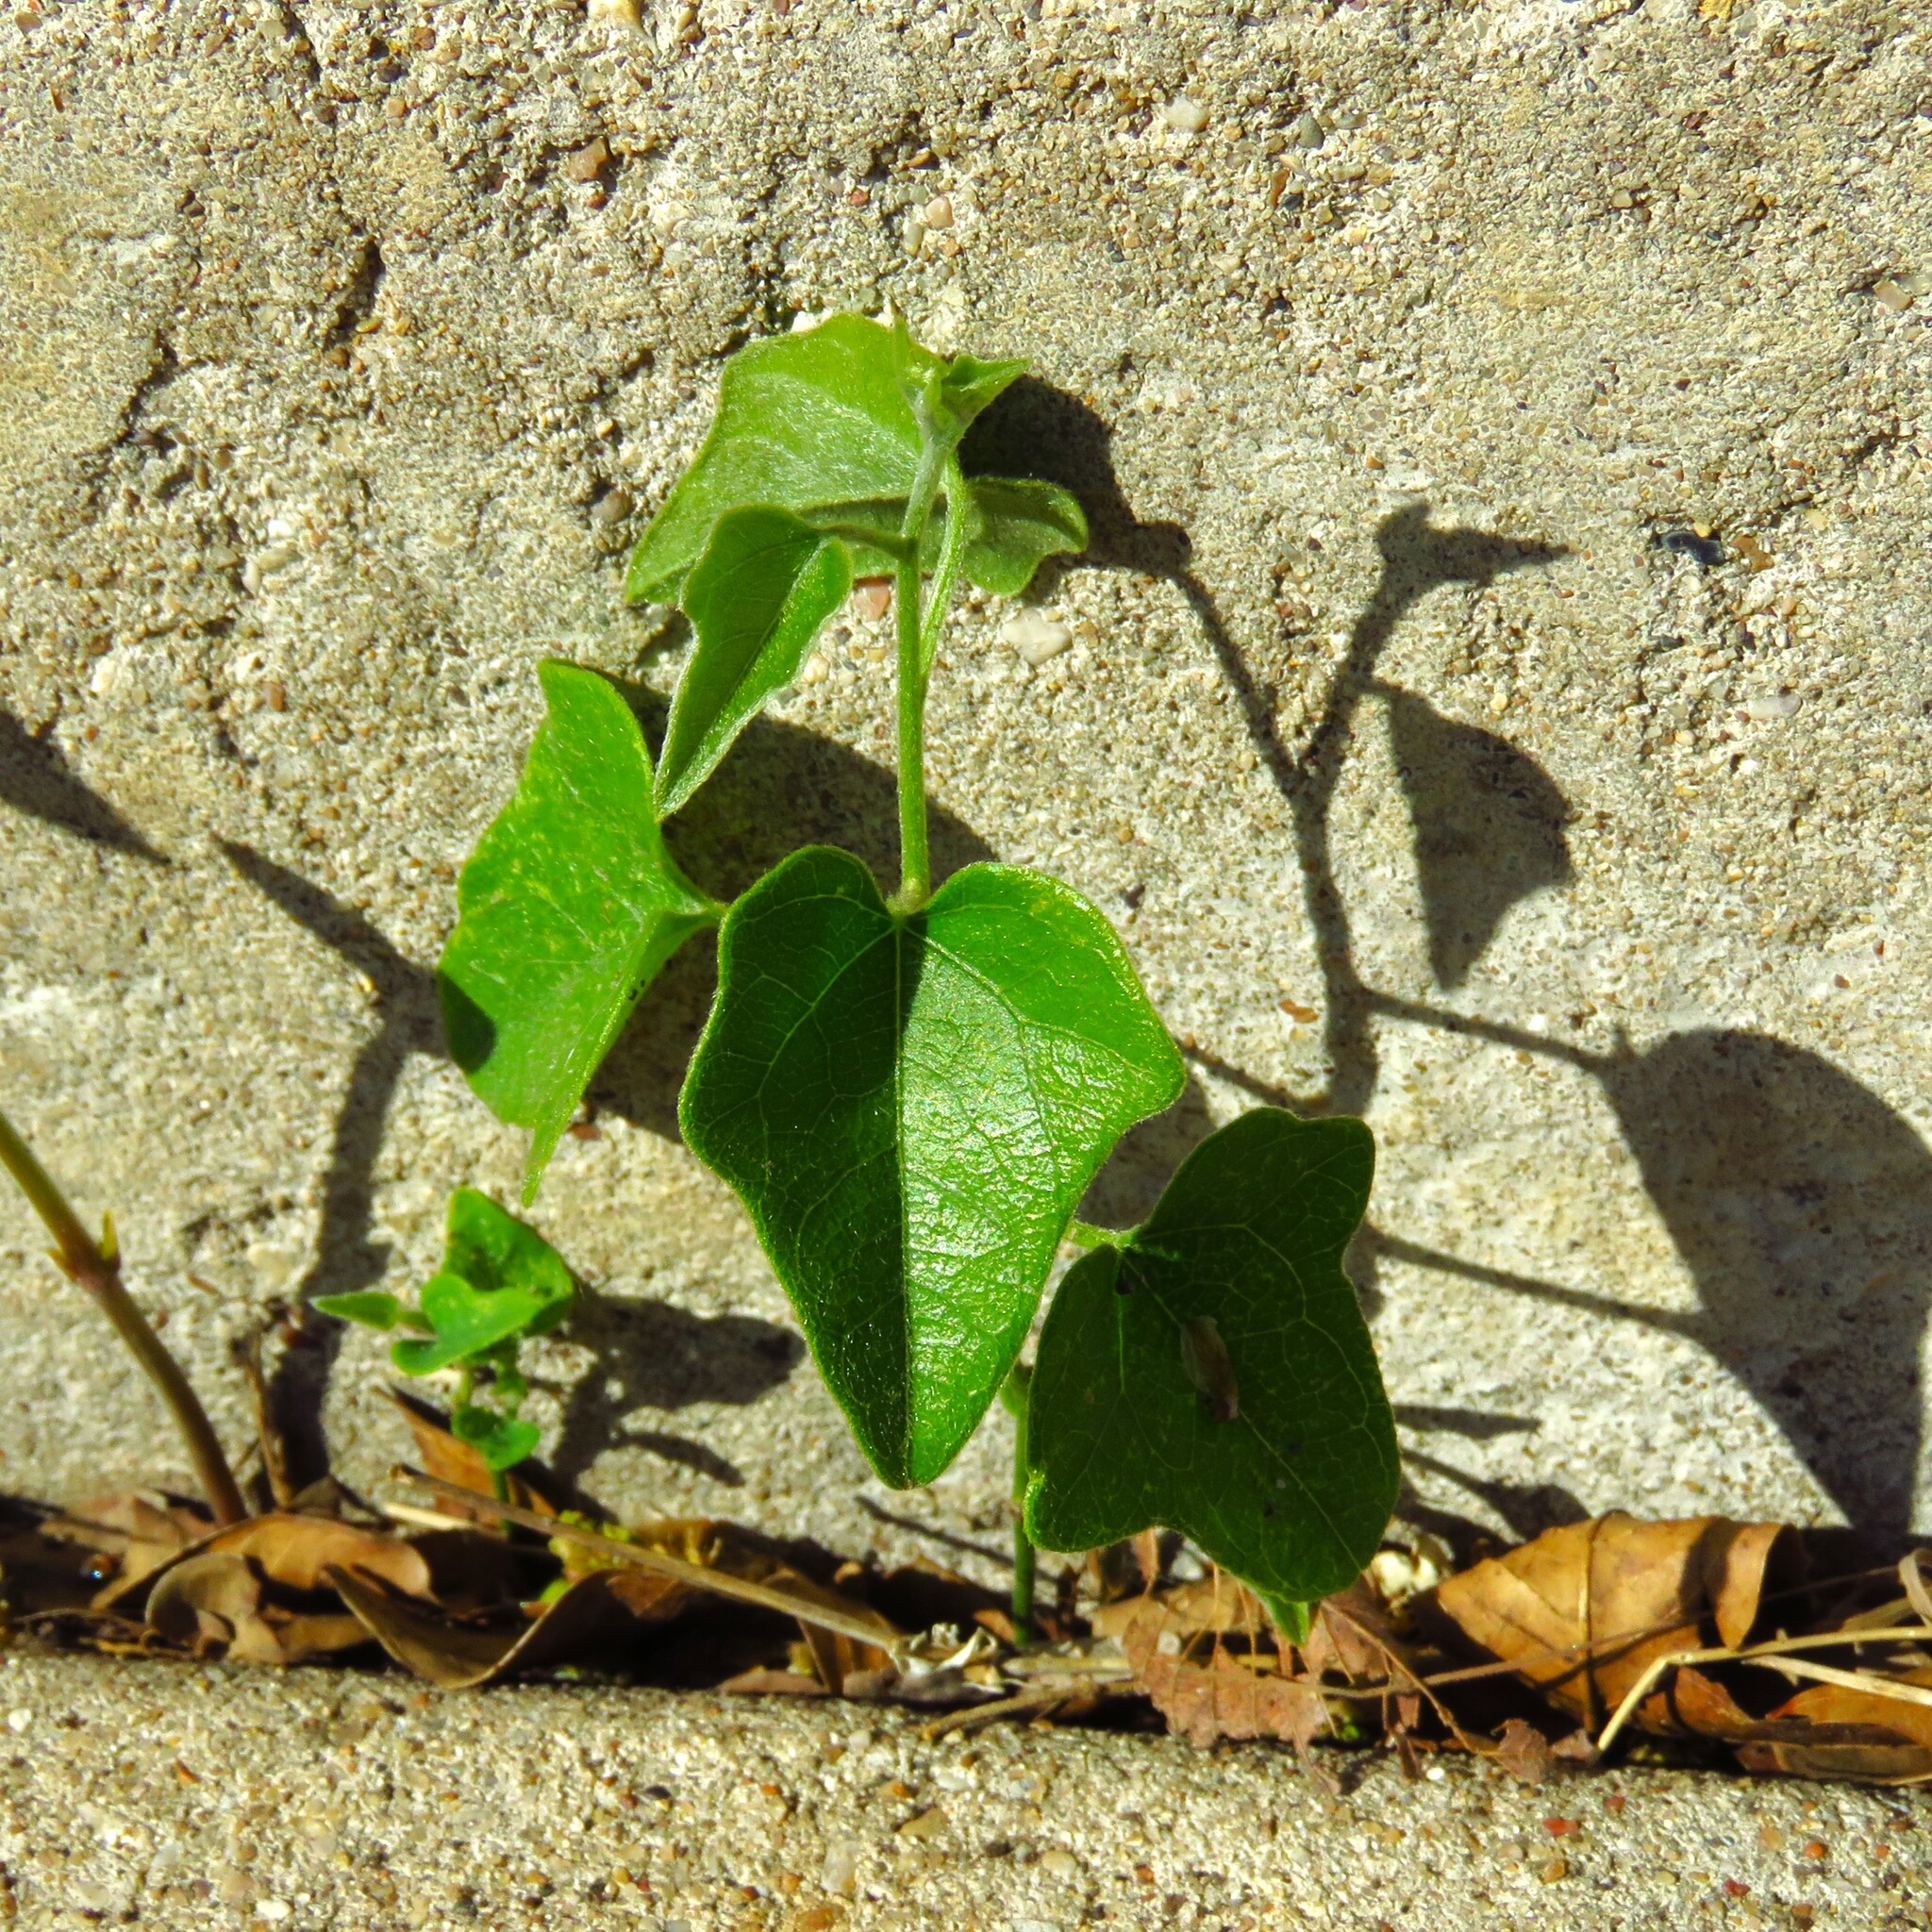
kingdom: Plantae
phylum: Tracheophyta
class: Magnoliopsida
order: Ranunculales
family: Menispermaceae
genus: Cocculus
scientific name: Cocculus carolinus
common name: Carolina moonseed
